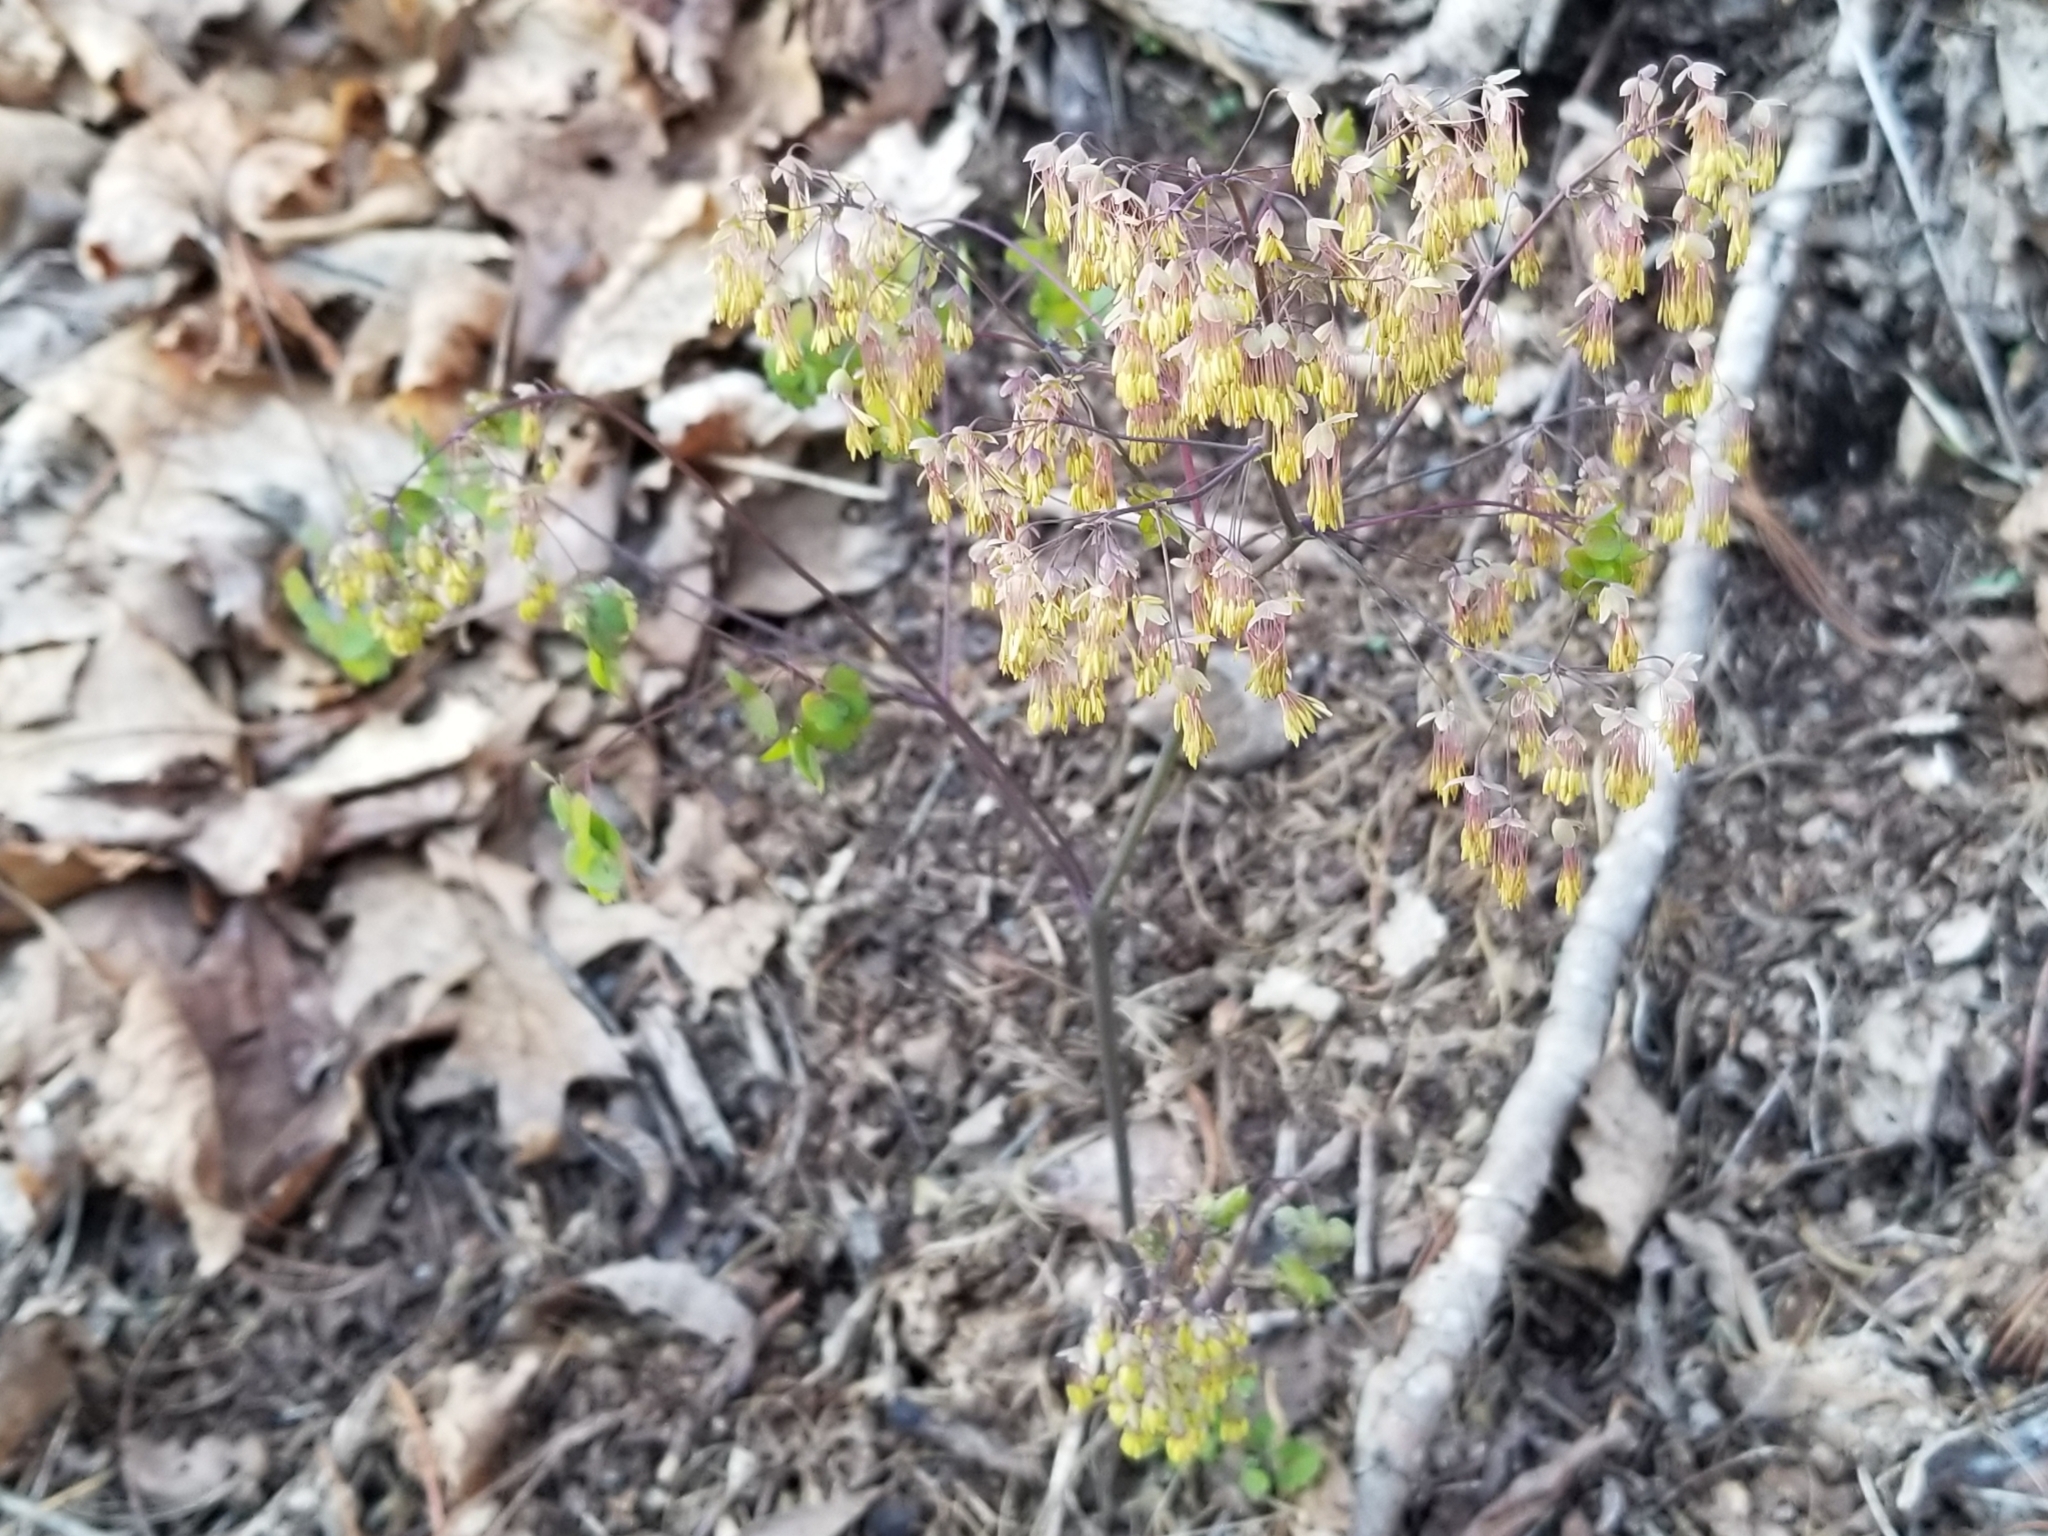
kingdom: Plantae
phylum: Tracheophyta
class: Magnoliopsida
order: Ranunculales
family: Ranunculaceae
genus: Thalictrum
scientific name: Thalictrum dioicum
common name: Early meadow-rue
